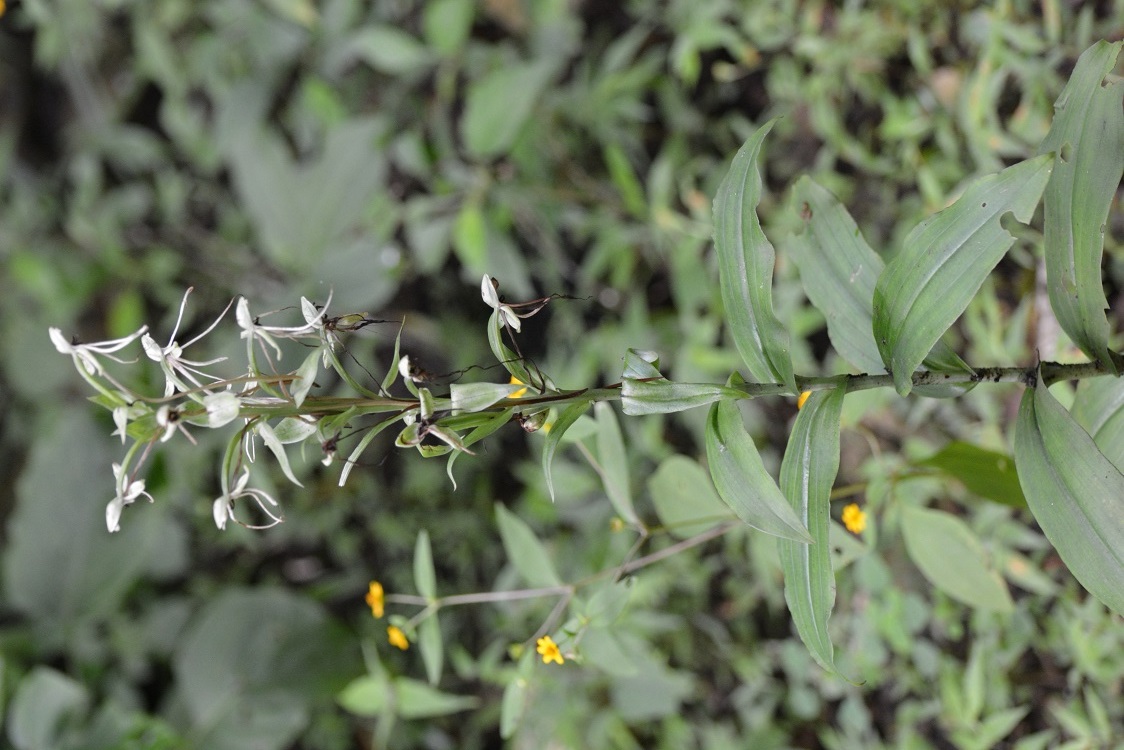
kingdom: Plantae
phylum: Tracheophyta
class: Liliopsida
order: Asparagales
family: Orchidaceae
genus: Habenaria
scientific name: Habenaria macroceratitis
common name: Big-horn bog orchid
